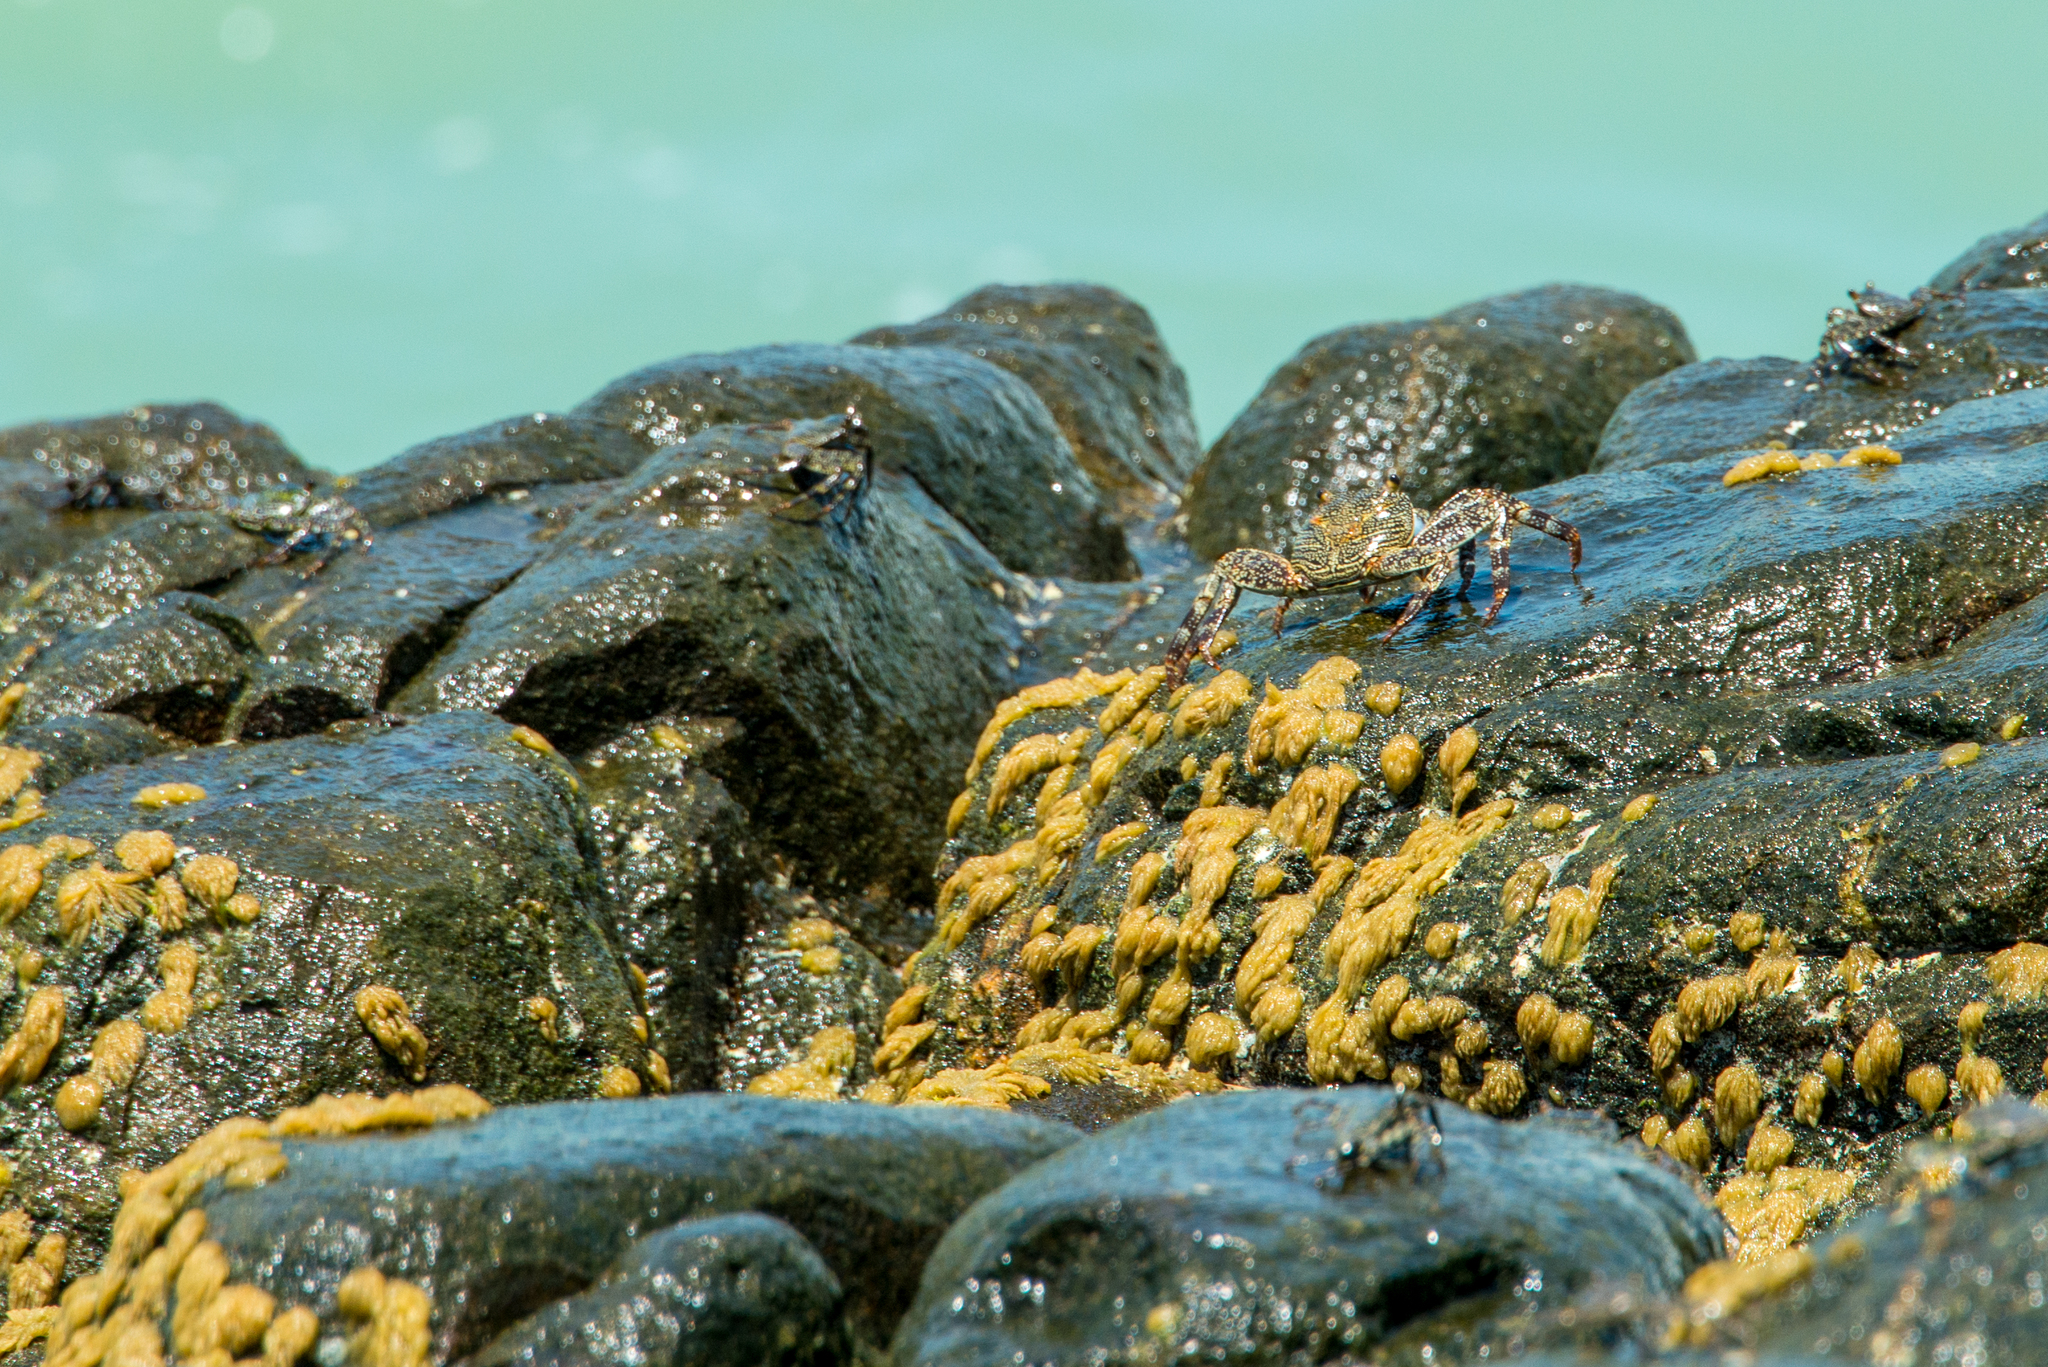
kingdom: Animalia
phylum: Arthropoda
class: Malacostraca
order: Decapoda
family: Grapsidae
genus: Grapsus
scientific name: Grapsus grapsus
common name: Sally lightfoot
